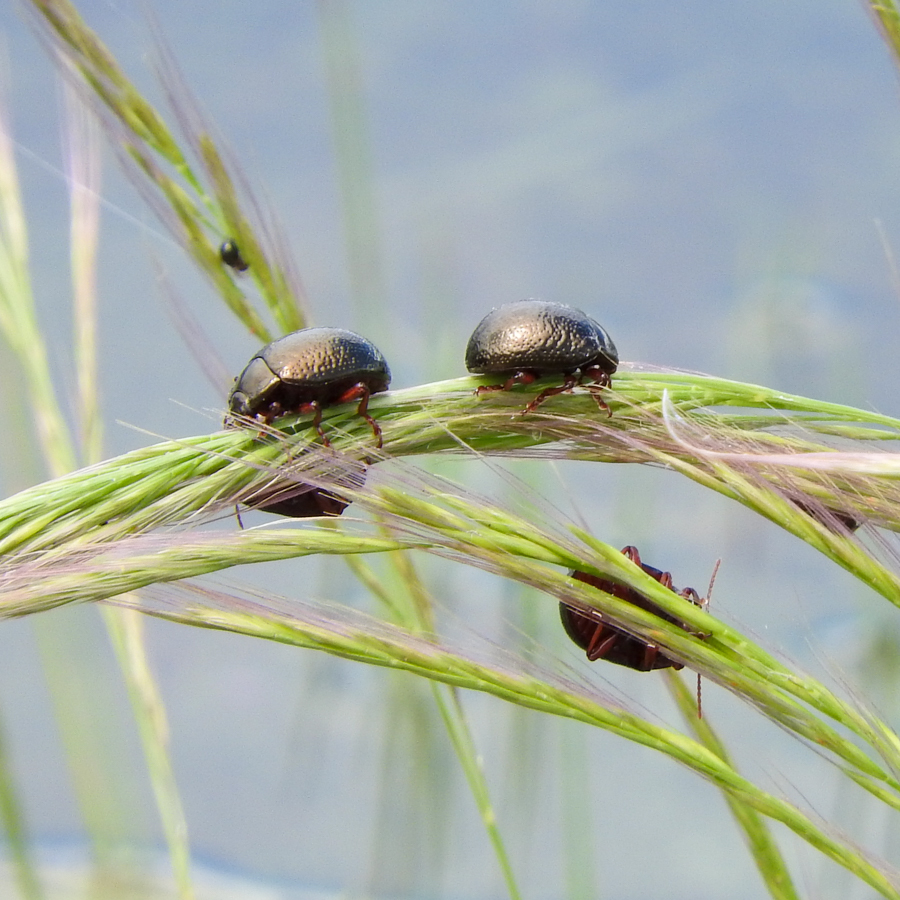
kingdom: Animalia
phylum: Arthropoda
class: Insecta
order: Coleoptera
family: Chrysomelidae
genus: Chrysolina
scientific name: Chrysolina bankii
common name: Leaf beetle
